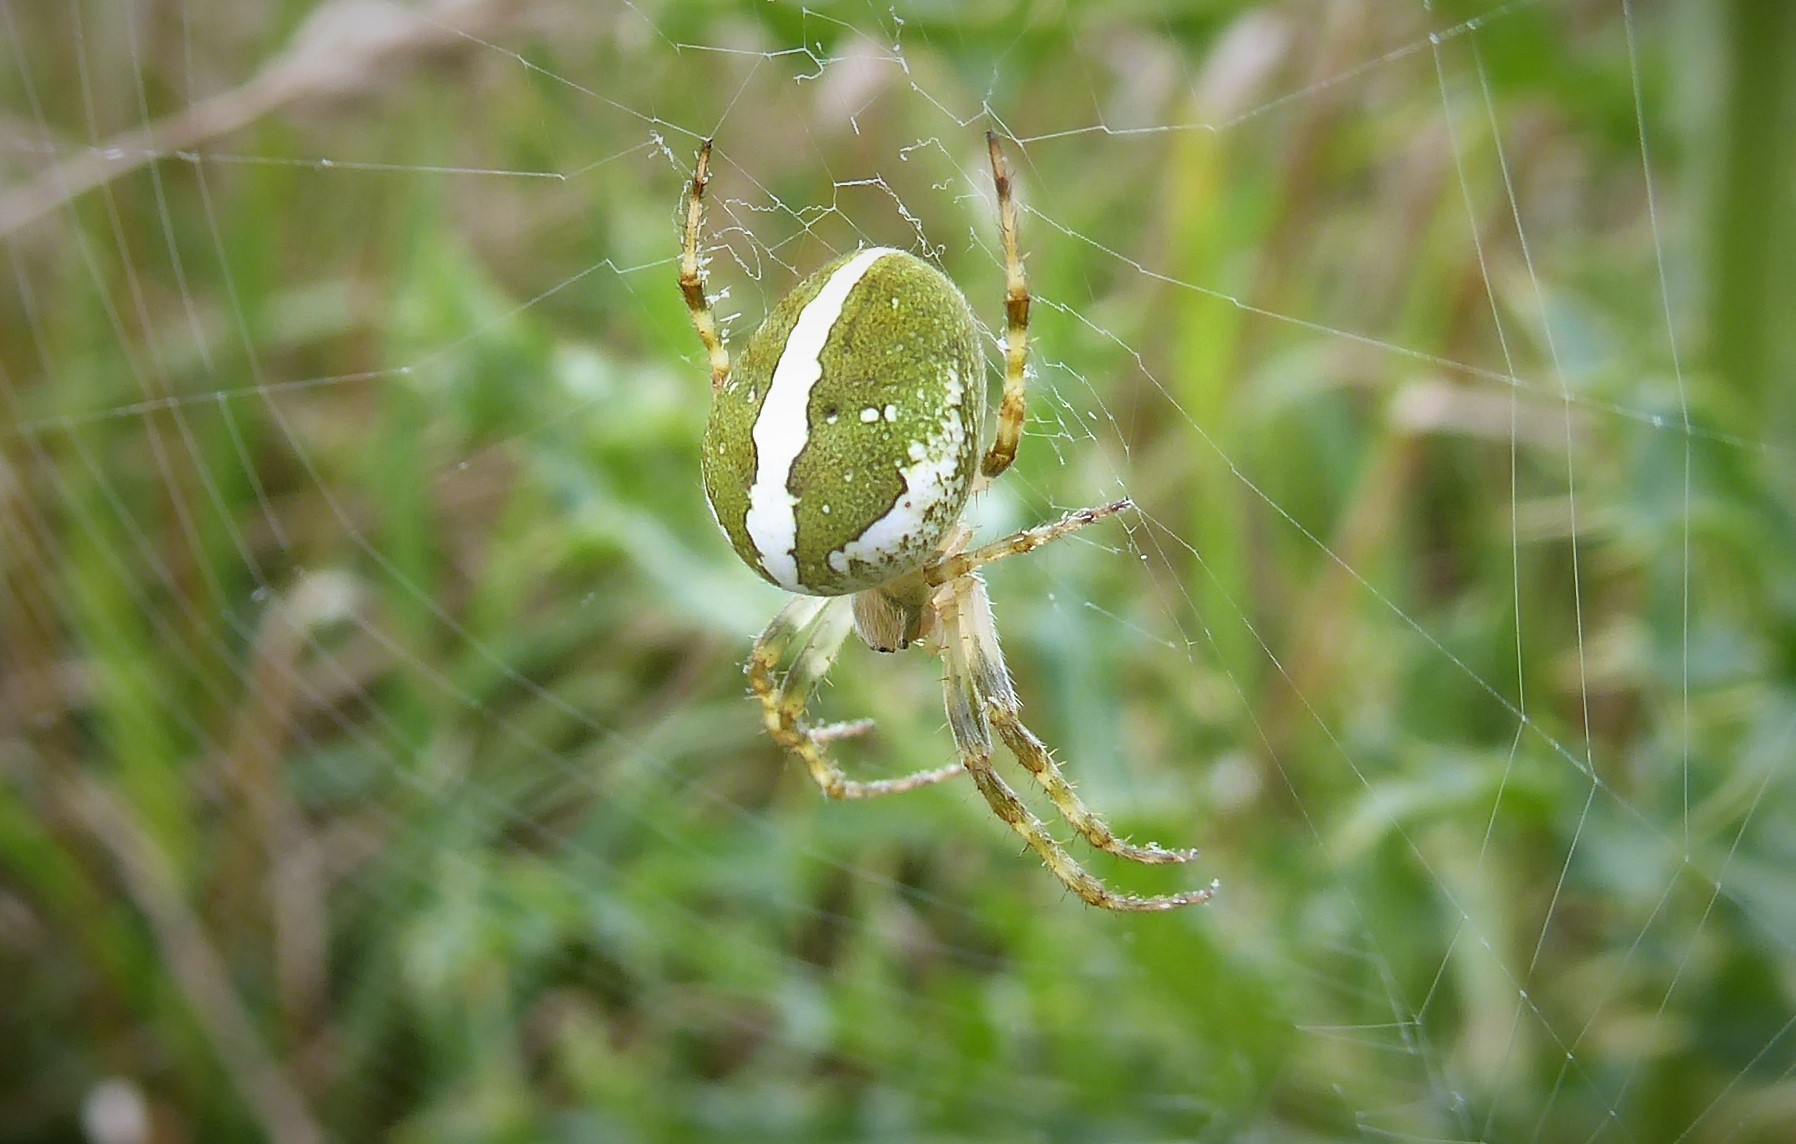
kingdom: Animalia
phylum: Arthropoda
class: Arachnida
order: Araneae
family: Araneidae
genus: Colaranea
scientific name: Colaranea verutum
